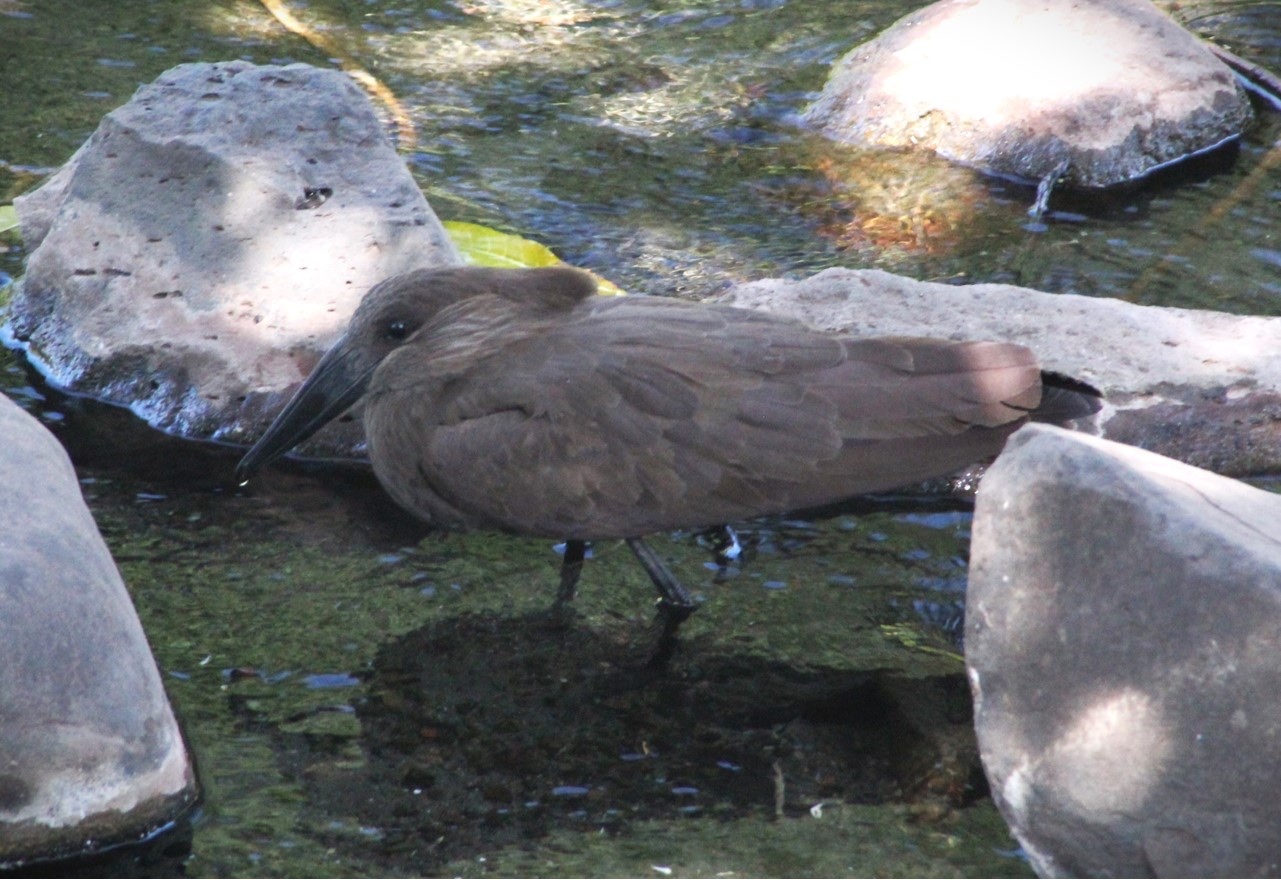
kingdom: Animalia
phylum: Chordata
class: Aves
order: Pelecaniformes
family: Scopidae
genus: Scopus
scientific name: Scopus umbretta
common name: Hamerkop
